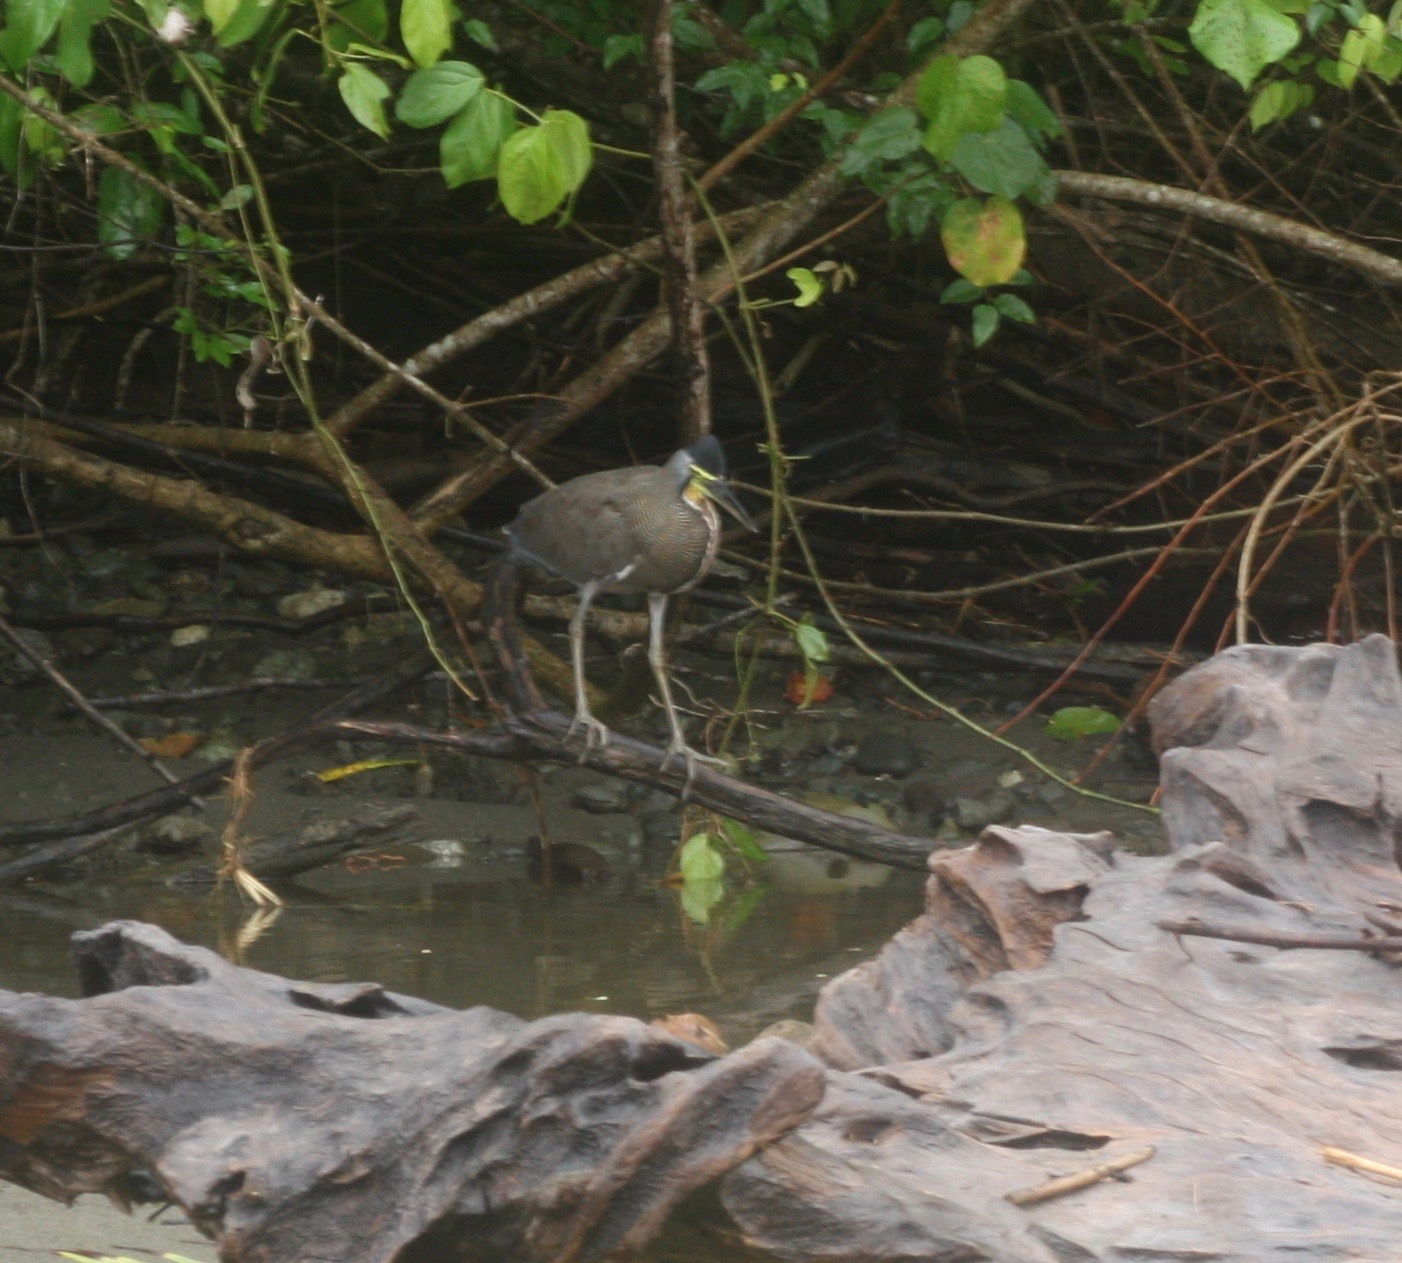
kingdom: Animalia
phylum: Chordata
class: Aves
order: Pelecaniformes
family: Ardeidae
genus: Tigrisoma
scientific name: Tigrisoma mexicanum
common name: Bare-throated tiger-heron
